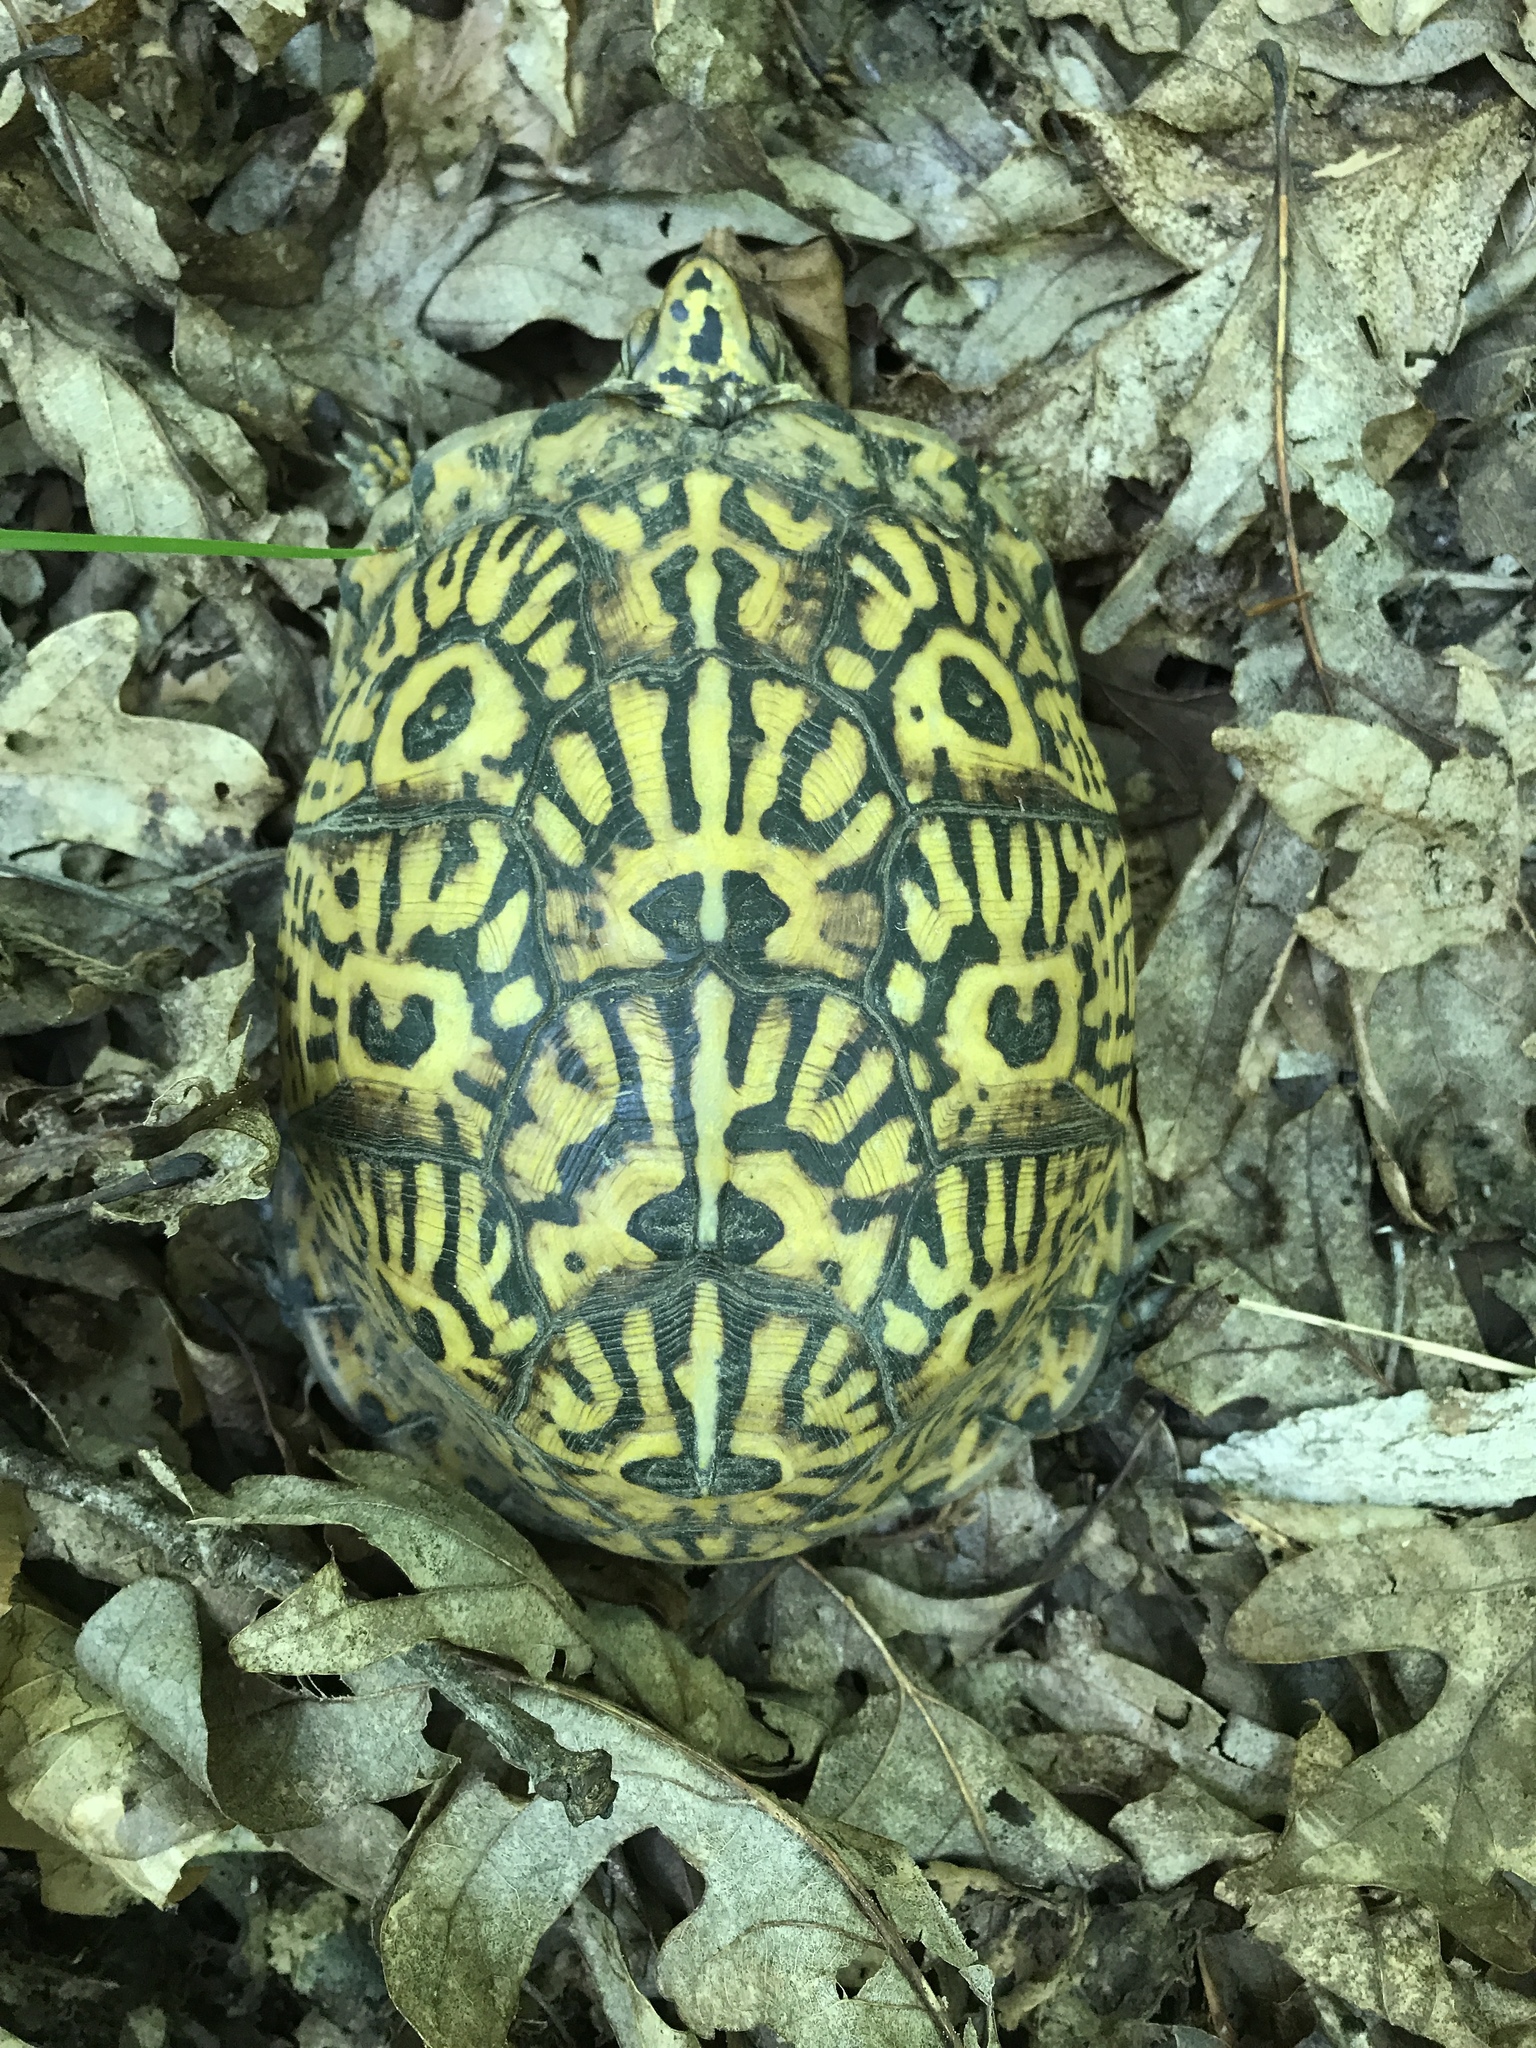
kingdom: Animalia
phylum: Chordata
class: Testudines
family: Emydidae
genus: Terrapene
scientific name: Terrapene carolina
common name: Common box turtle
